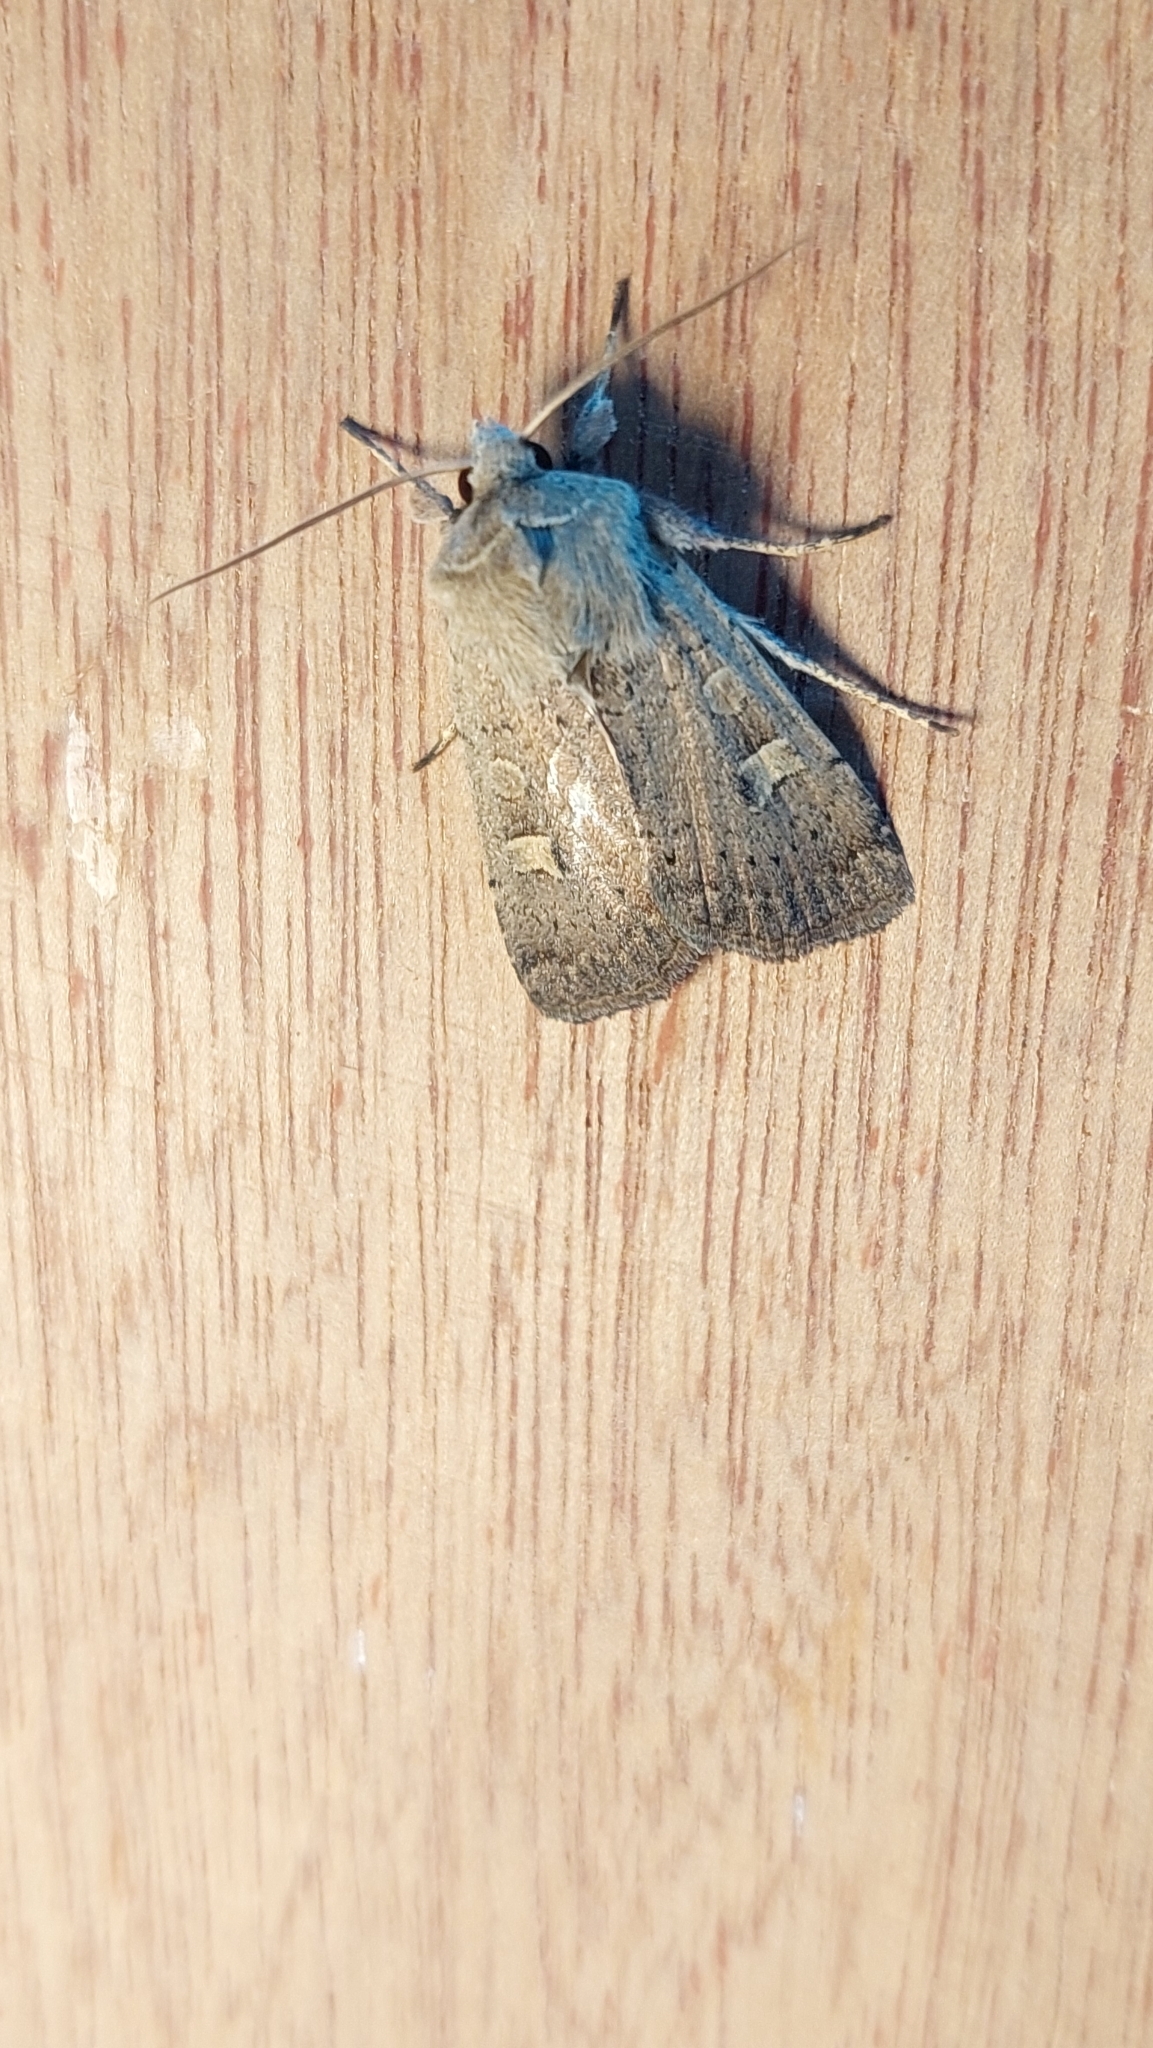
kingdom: Animalia
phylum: Arthropoda
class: Insecta
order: Lepidoptera
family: Noctuidae
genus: Xestia
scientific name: Xestia xanthographa
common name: Square-spot rustic
